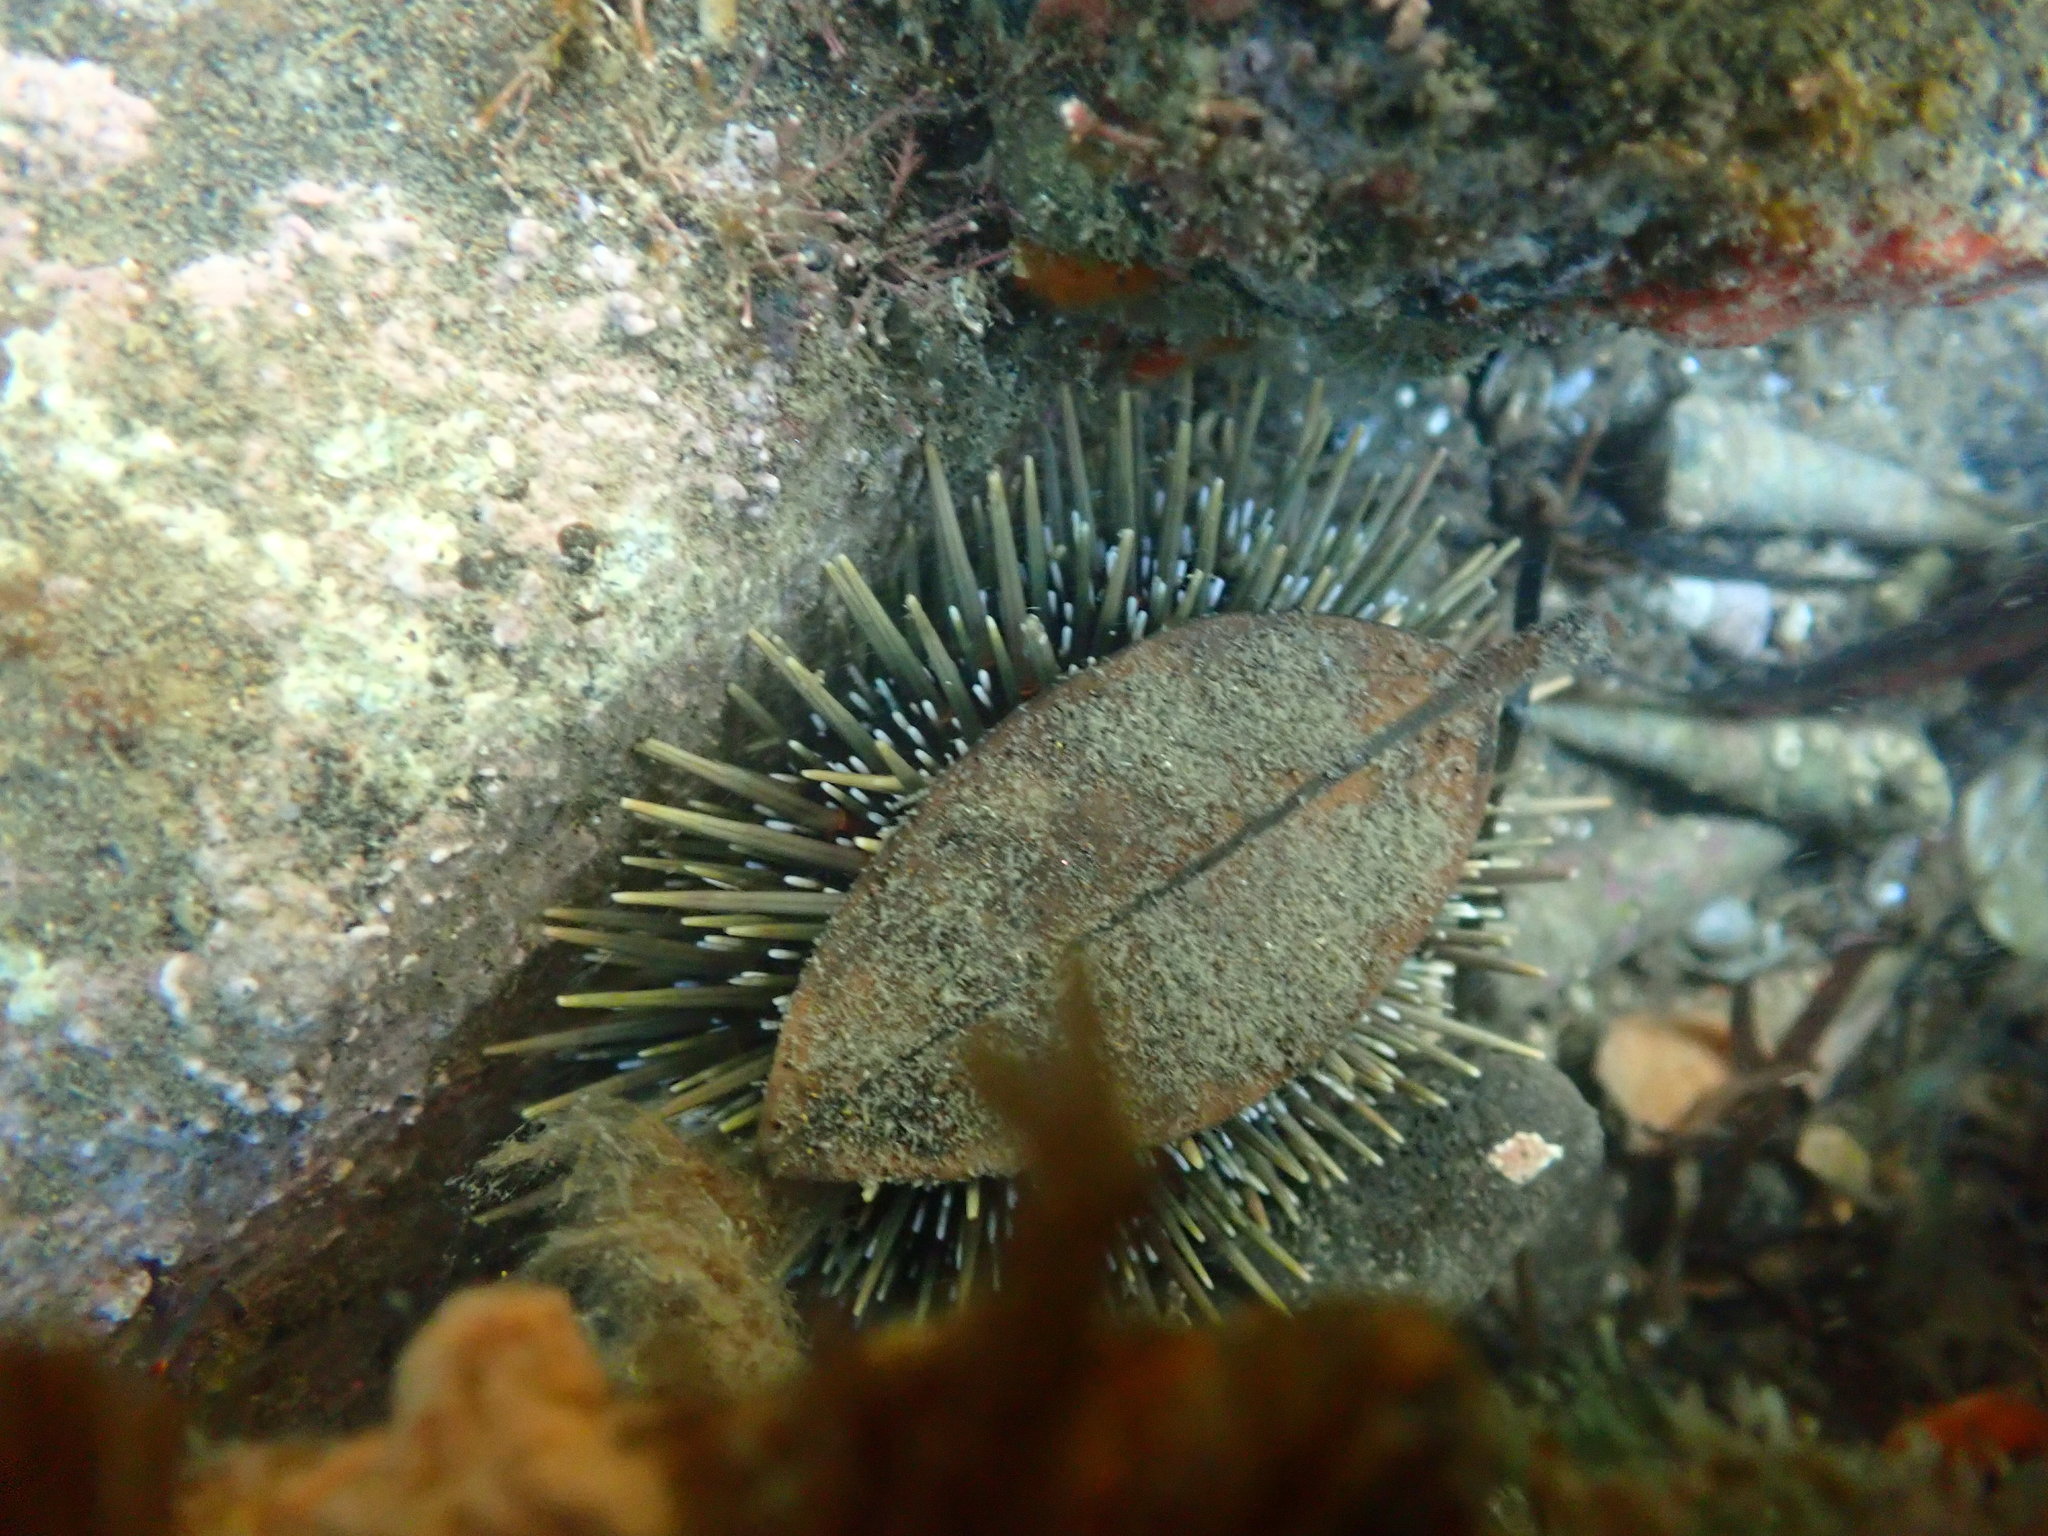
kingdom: Animalia
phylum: Echinodermata
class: Echinoidea
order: Camarodonta
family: Echinometridae
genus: Evechinus
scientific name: Evechinus chloroticus
